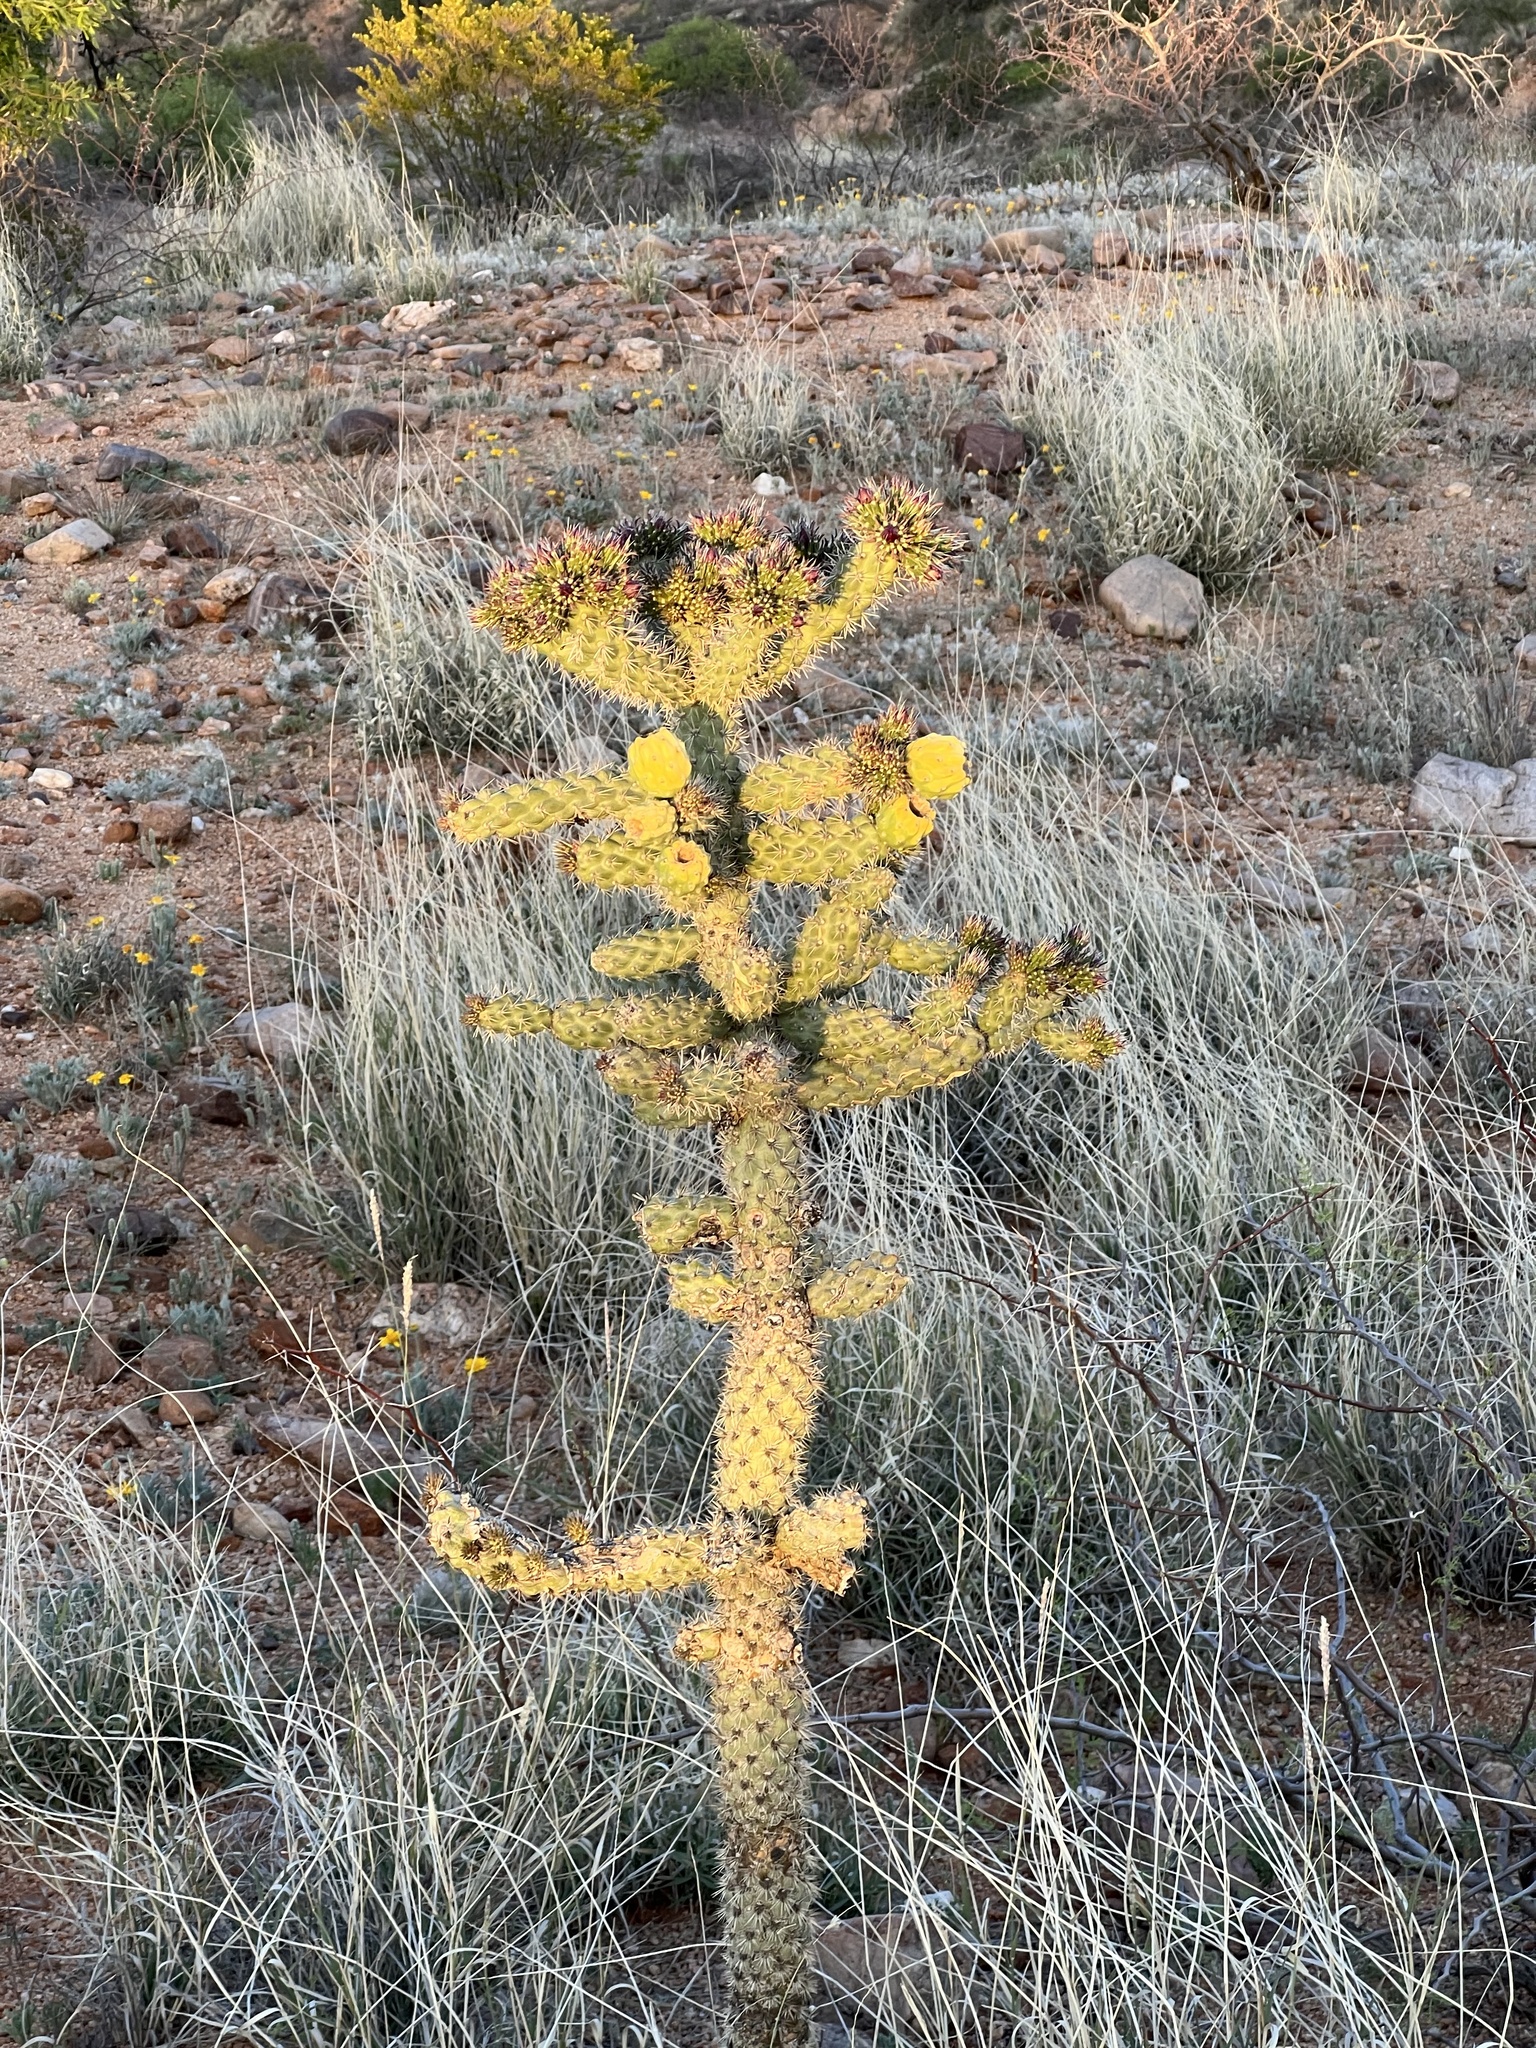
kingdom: Plantae
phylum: Tracheophyta
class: Magnoliopsida
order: Caryophyllales
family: Cactaceae
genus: Cylindropuntia
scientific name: Cylindropuntia imbricata
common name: Candelabrum cactus
